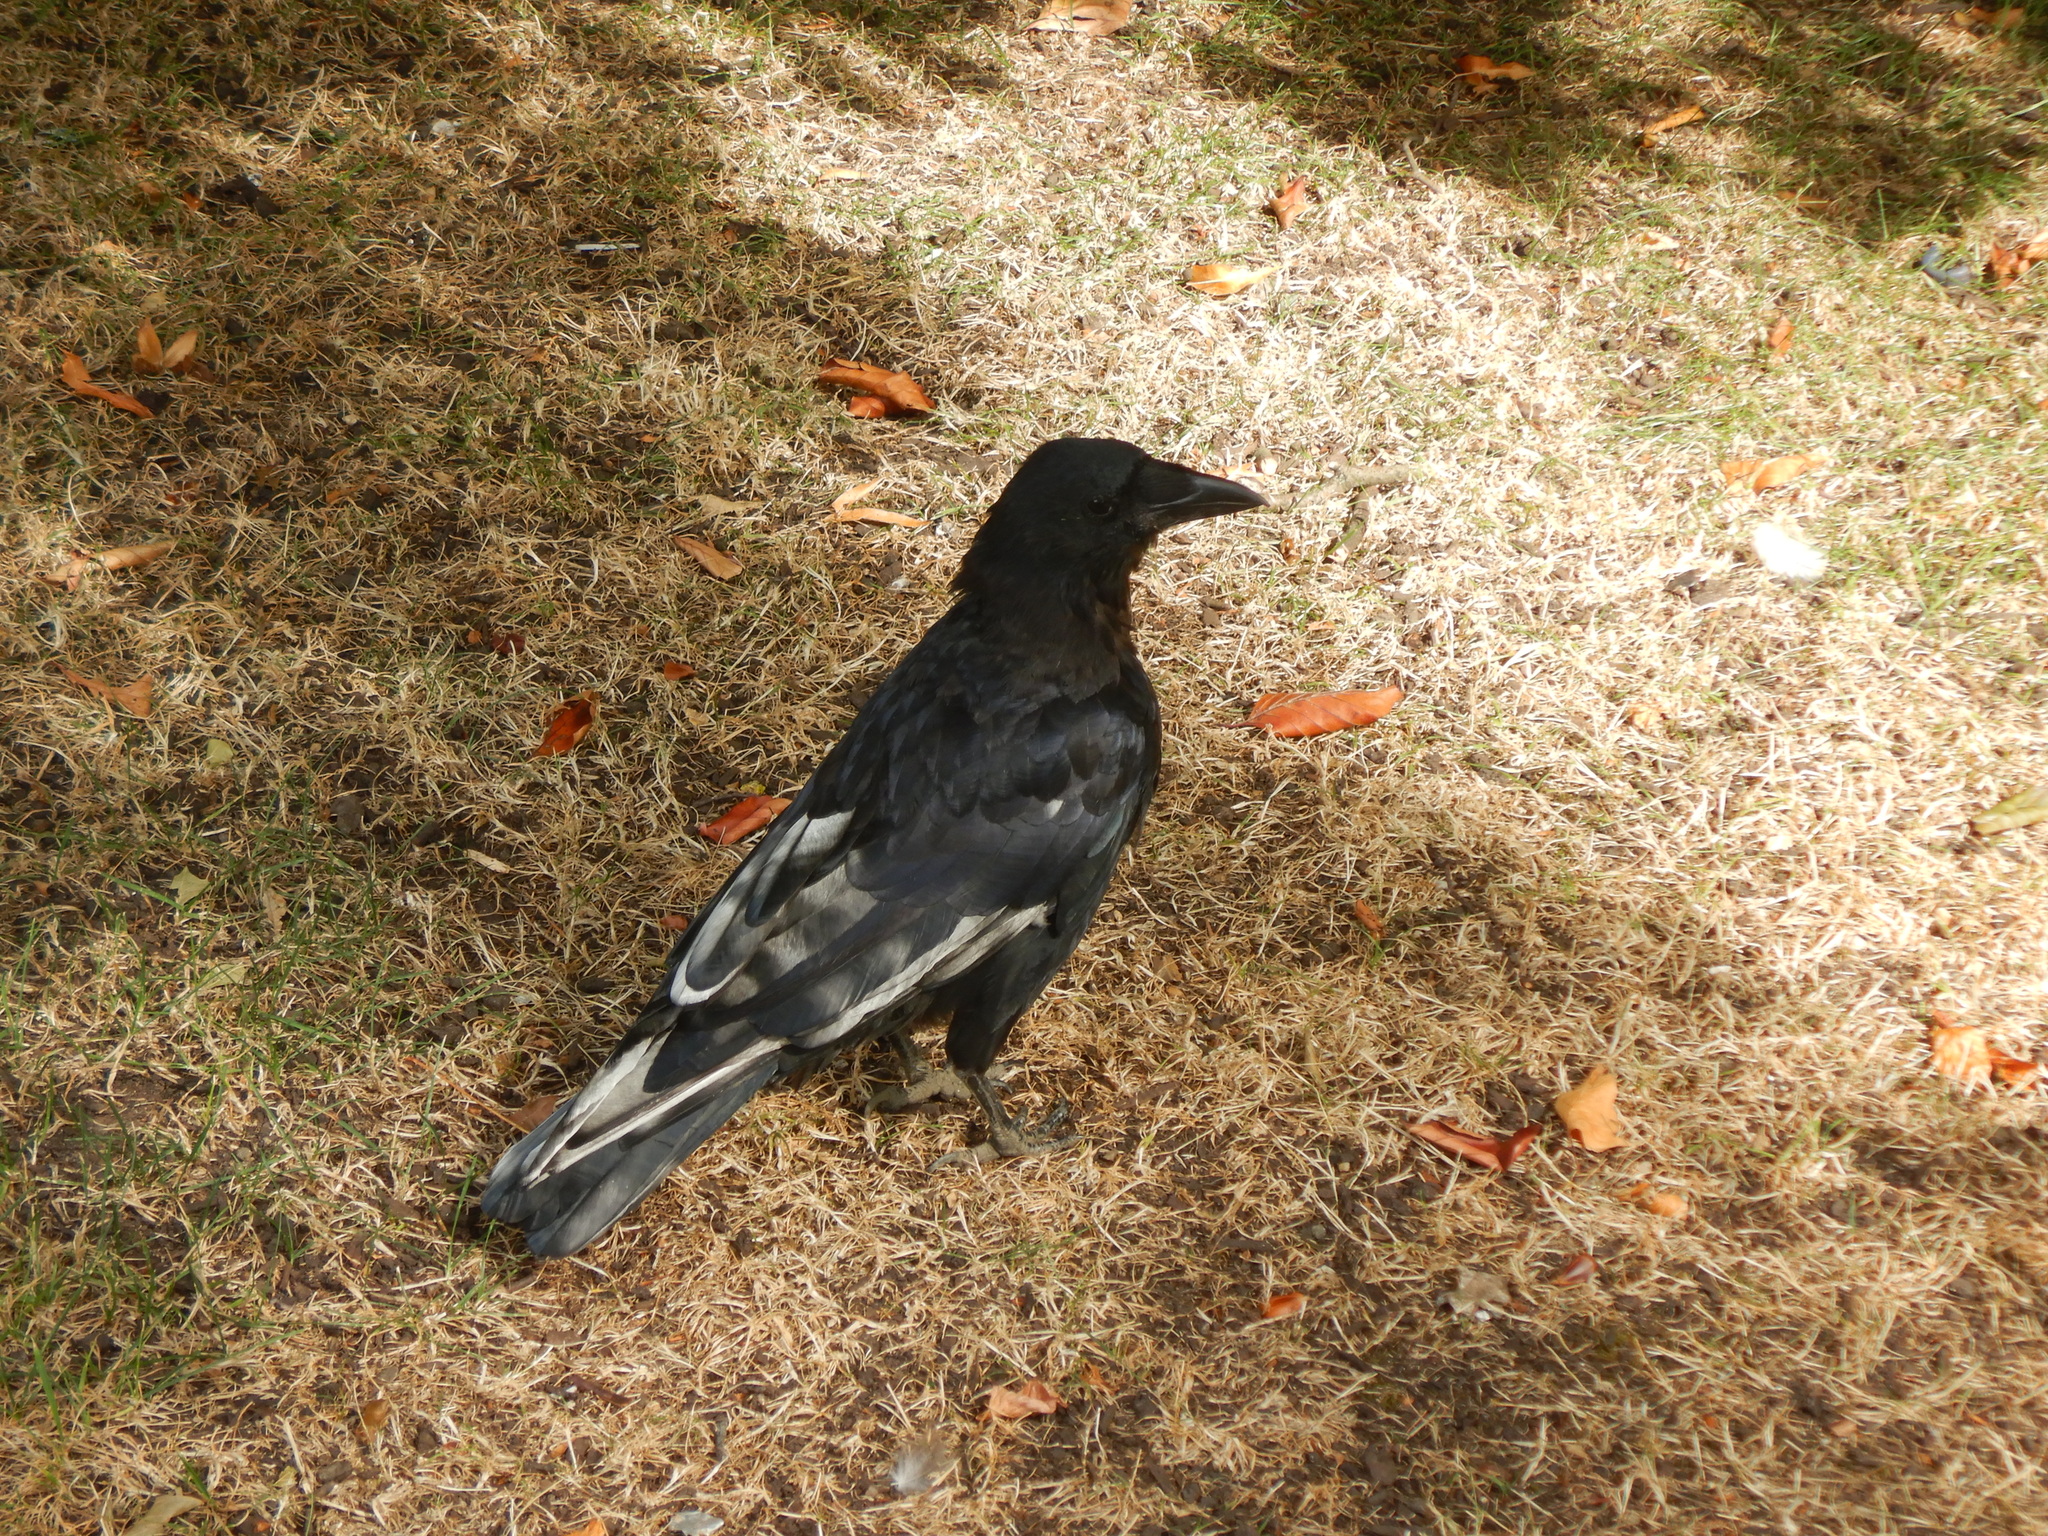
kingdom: Animalia
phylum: Chordata
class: Aves
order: Passeriformes
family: Corvidae
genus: Corvus
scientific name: Corvus corone
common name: Carrion crow
